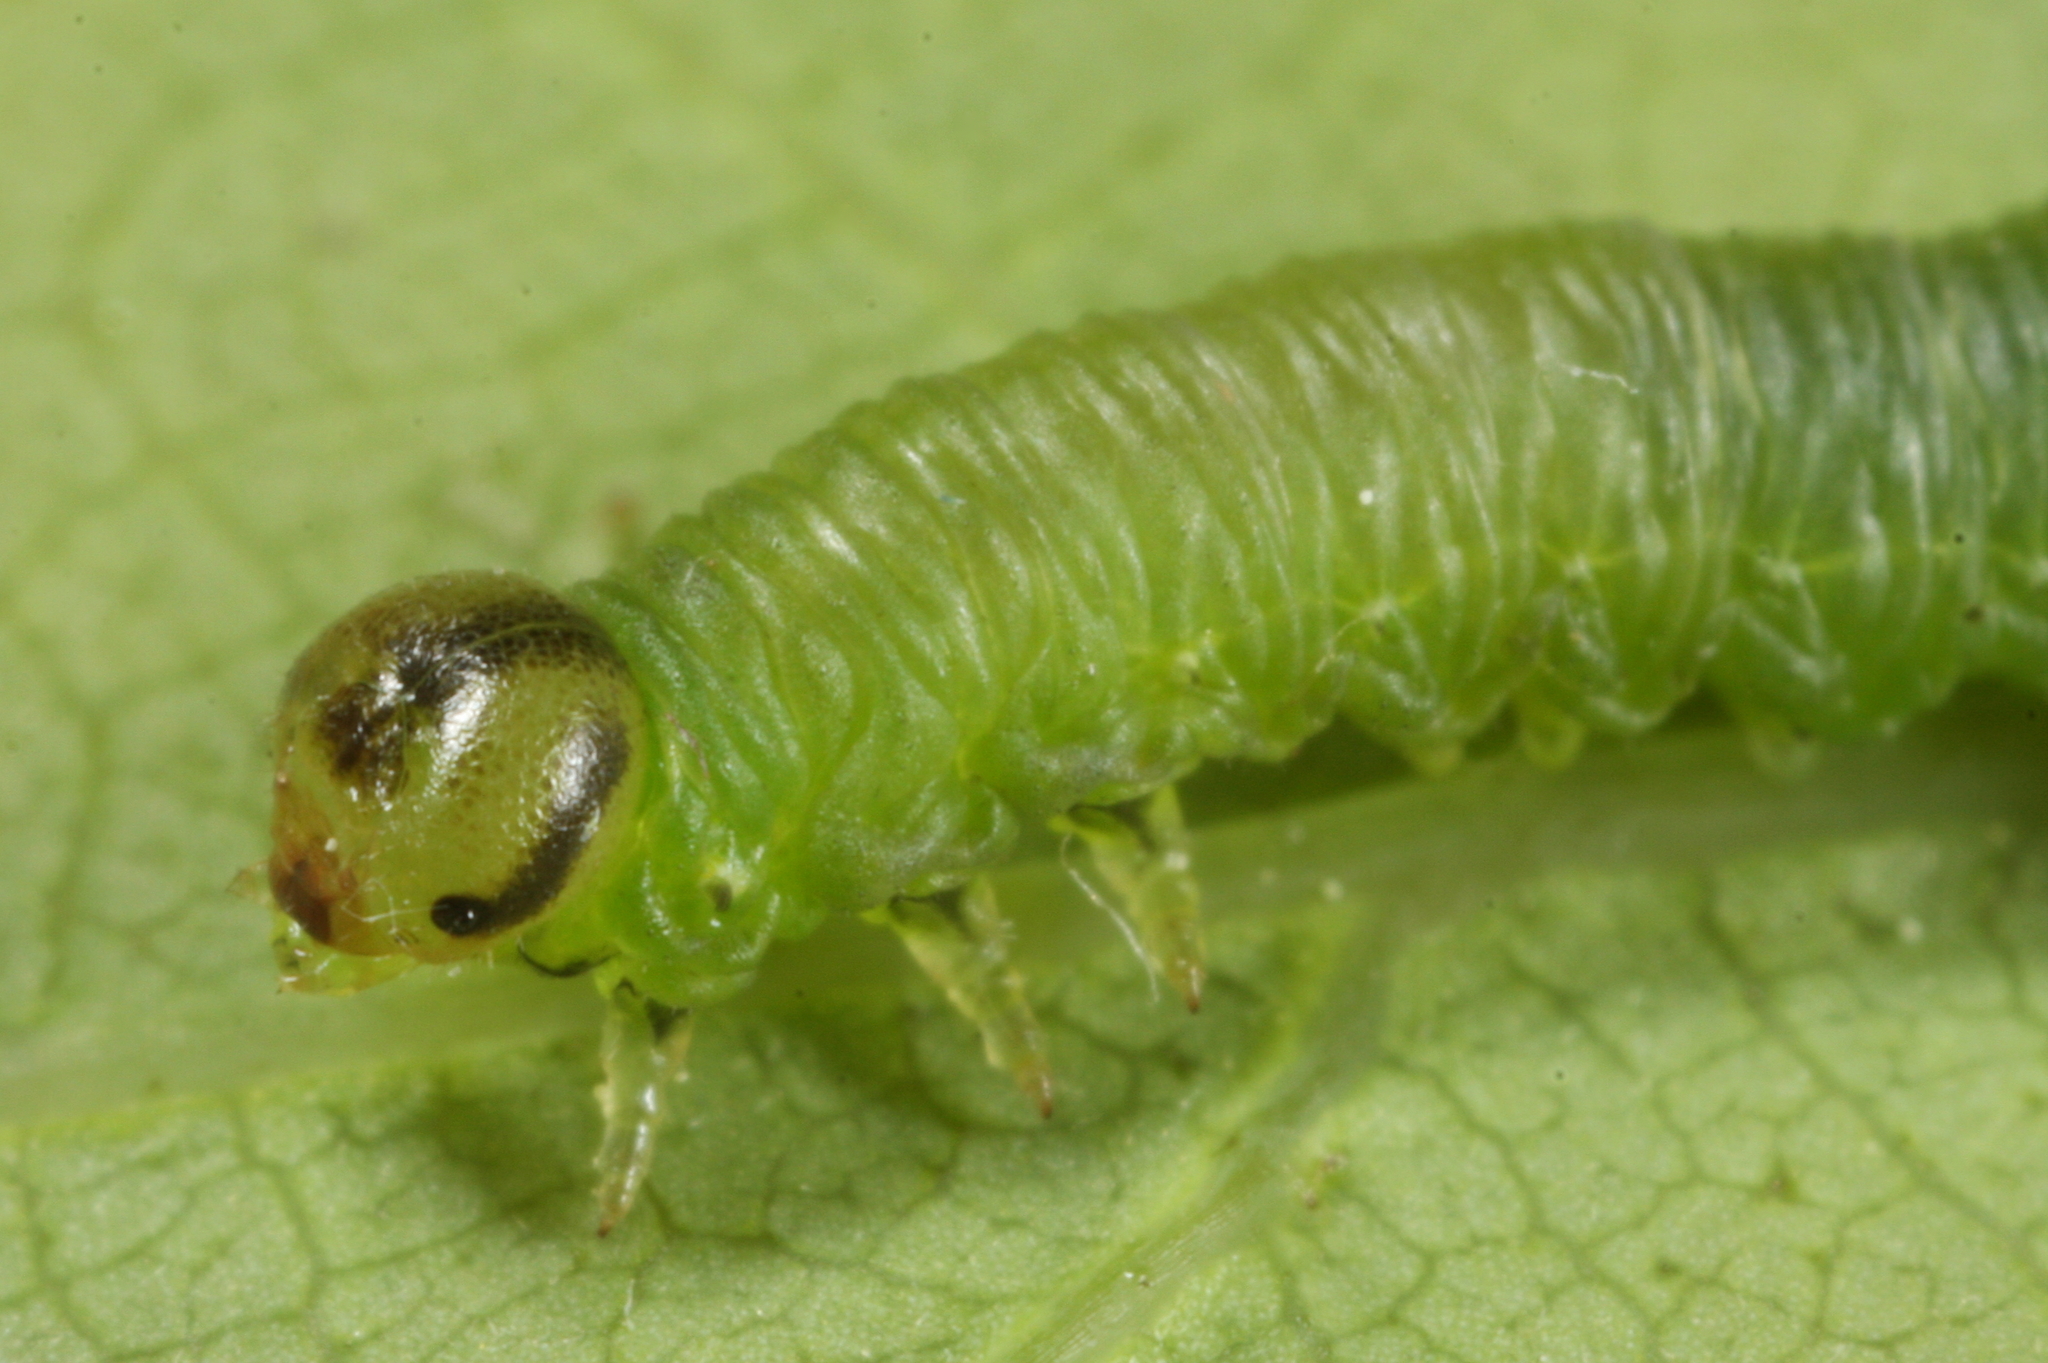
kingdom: Animalia
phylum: Arthropoda
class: Insecta
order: Hymenoptera
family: Tenthredinidae
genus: Pristiphora
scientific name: Pristiphora armata
